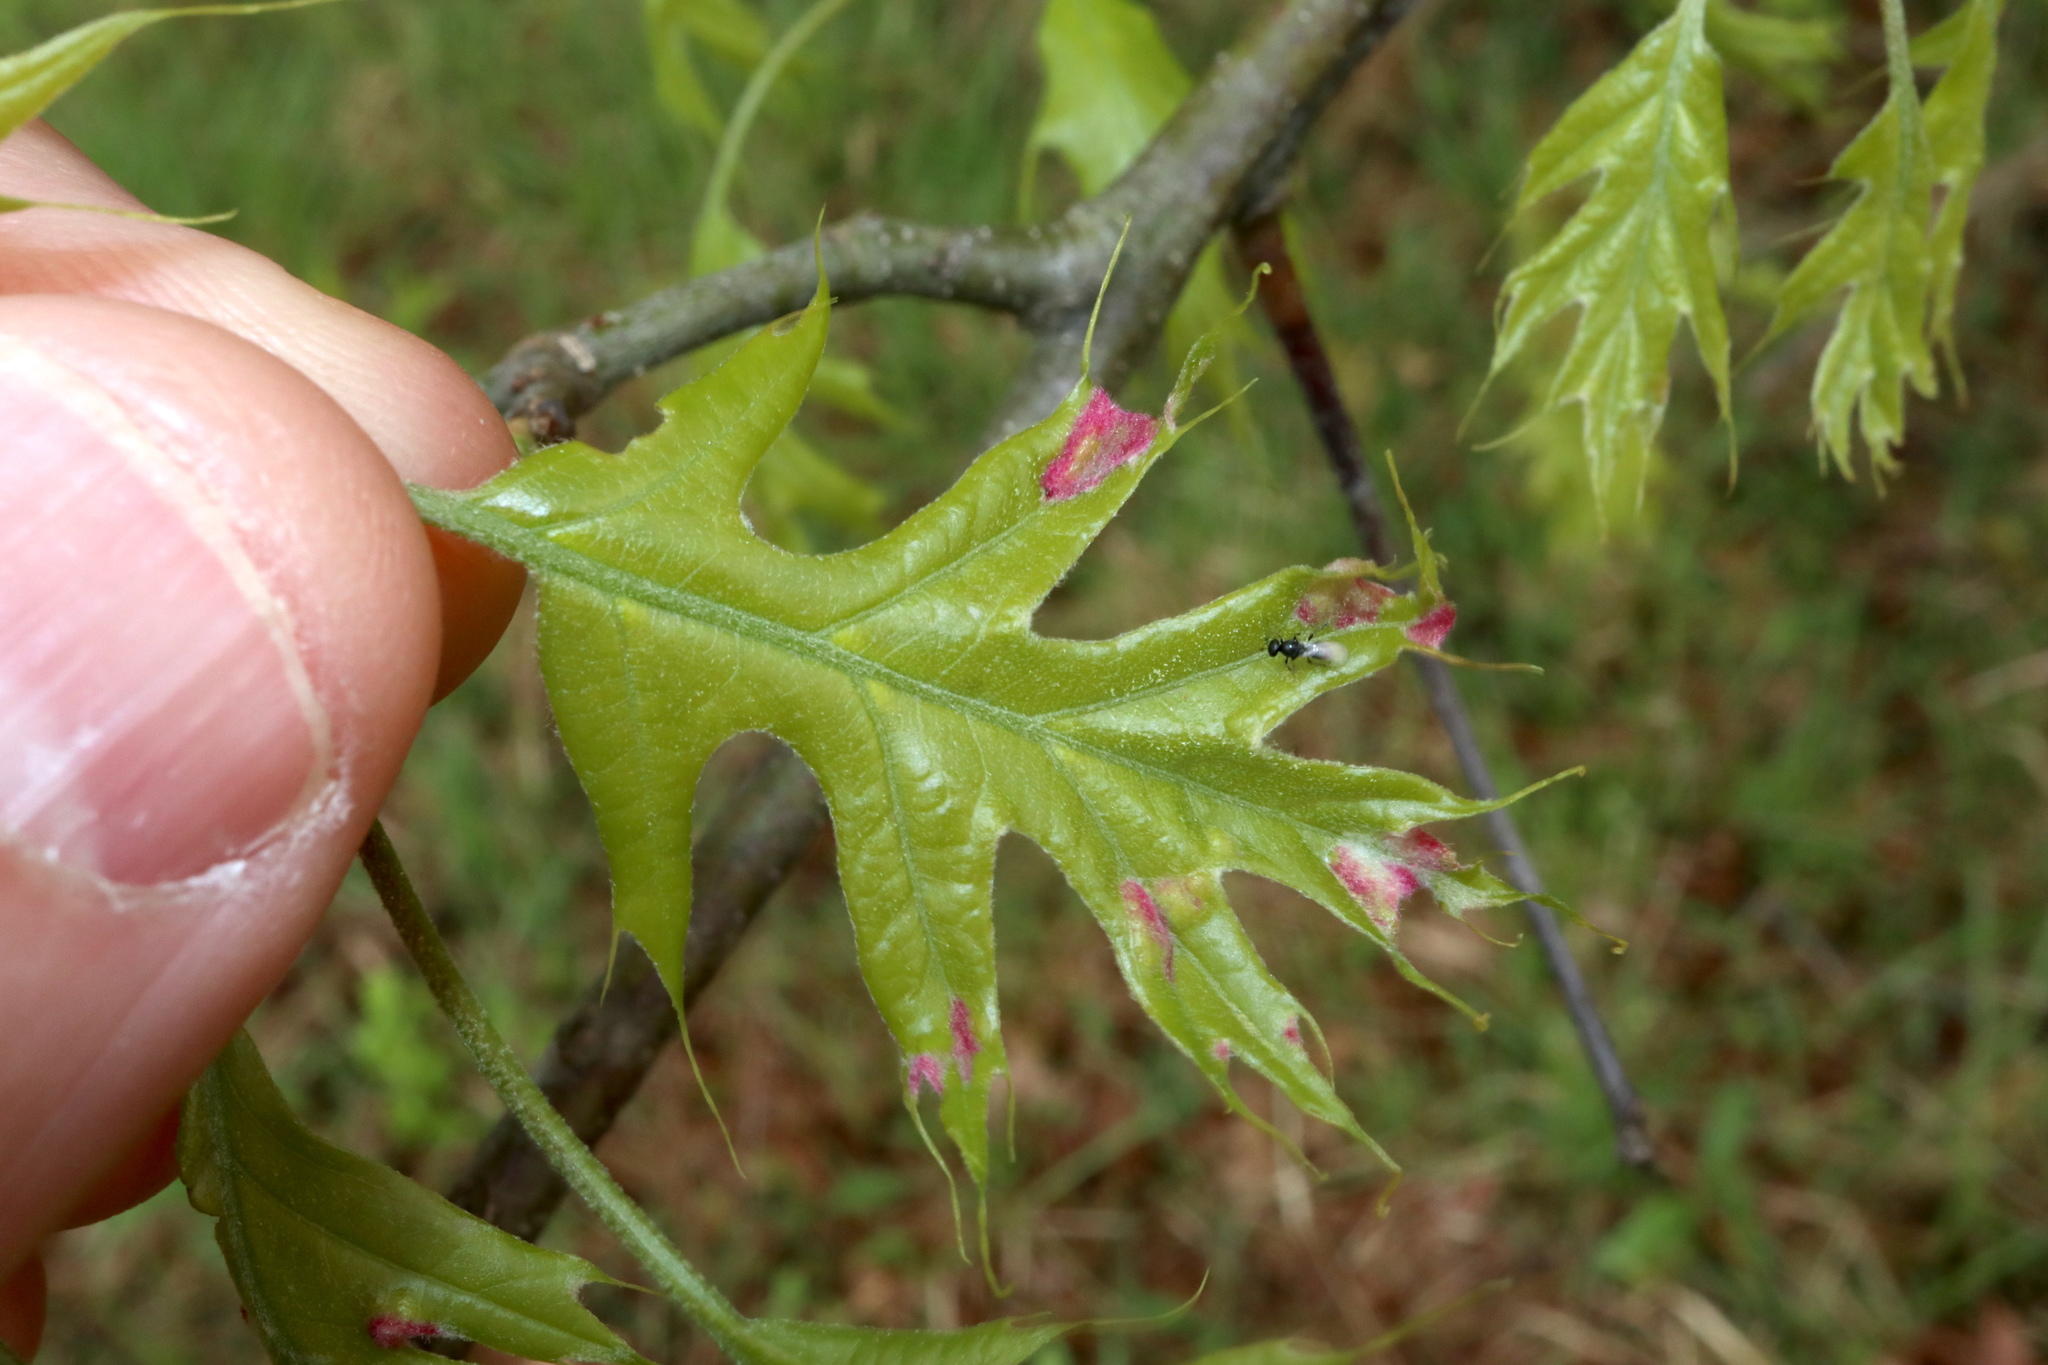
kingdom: Animalia
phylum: Arthropoda
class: Arachnida
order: Trombidiformes
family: Eriophyidae
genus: Aceria
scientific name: Aceria
